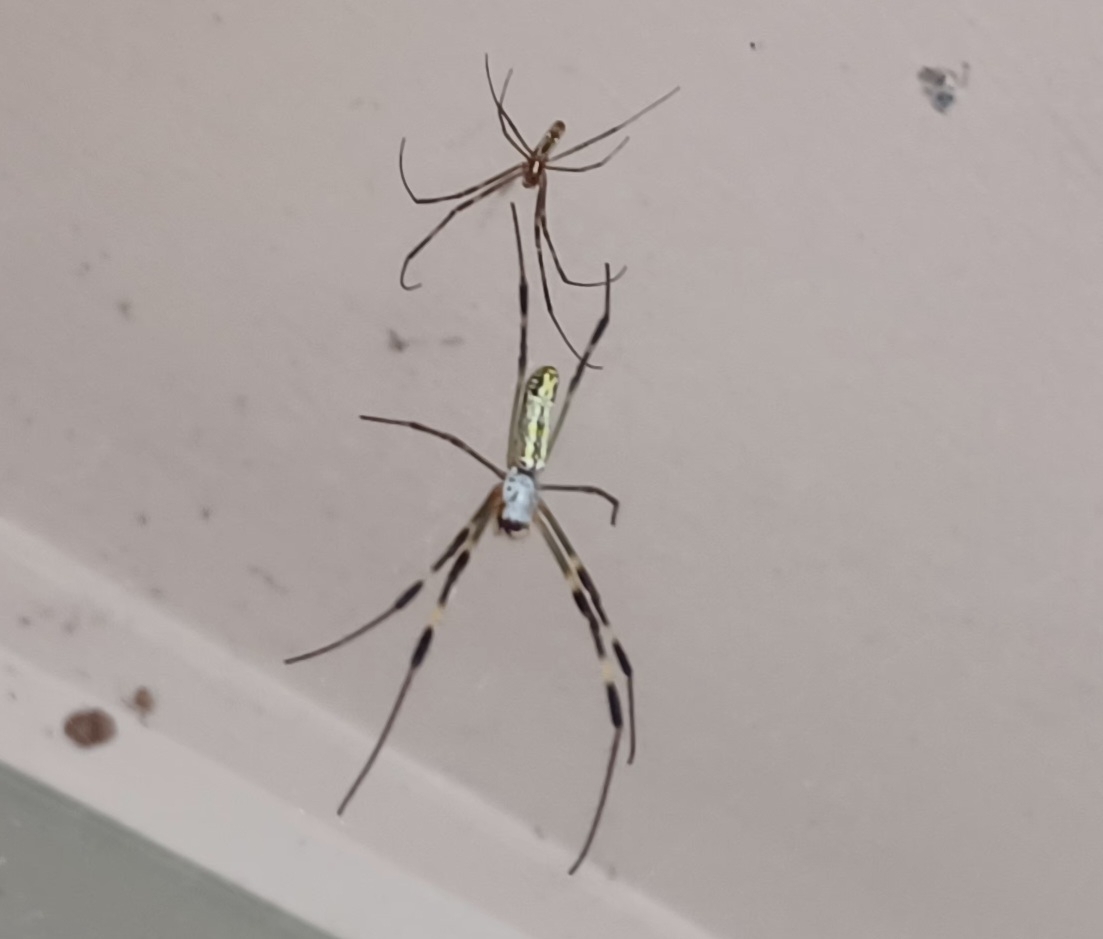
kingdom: Animalia
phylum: Arthropoda
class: Arachnida
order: Araneae
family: Araneidae
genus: Trichonephila
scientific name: Trichonephila clavata
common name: Jorō spider
